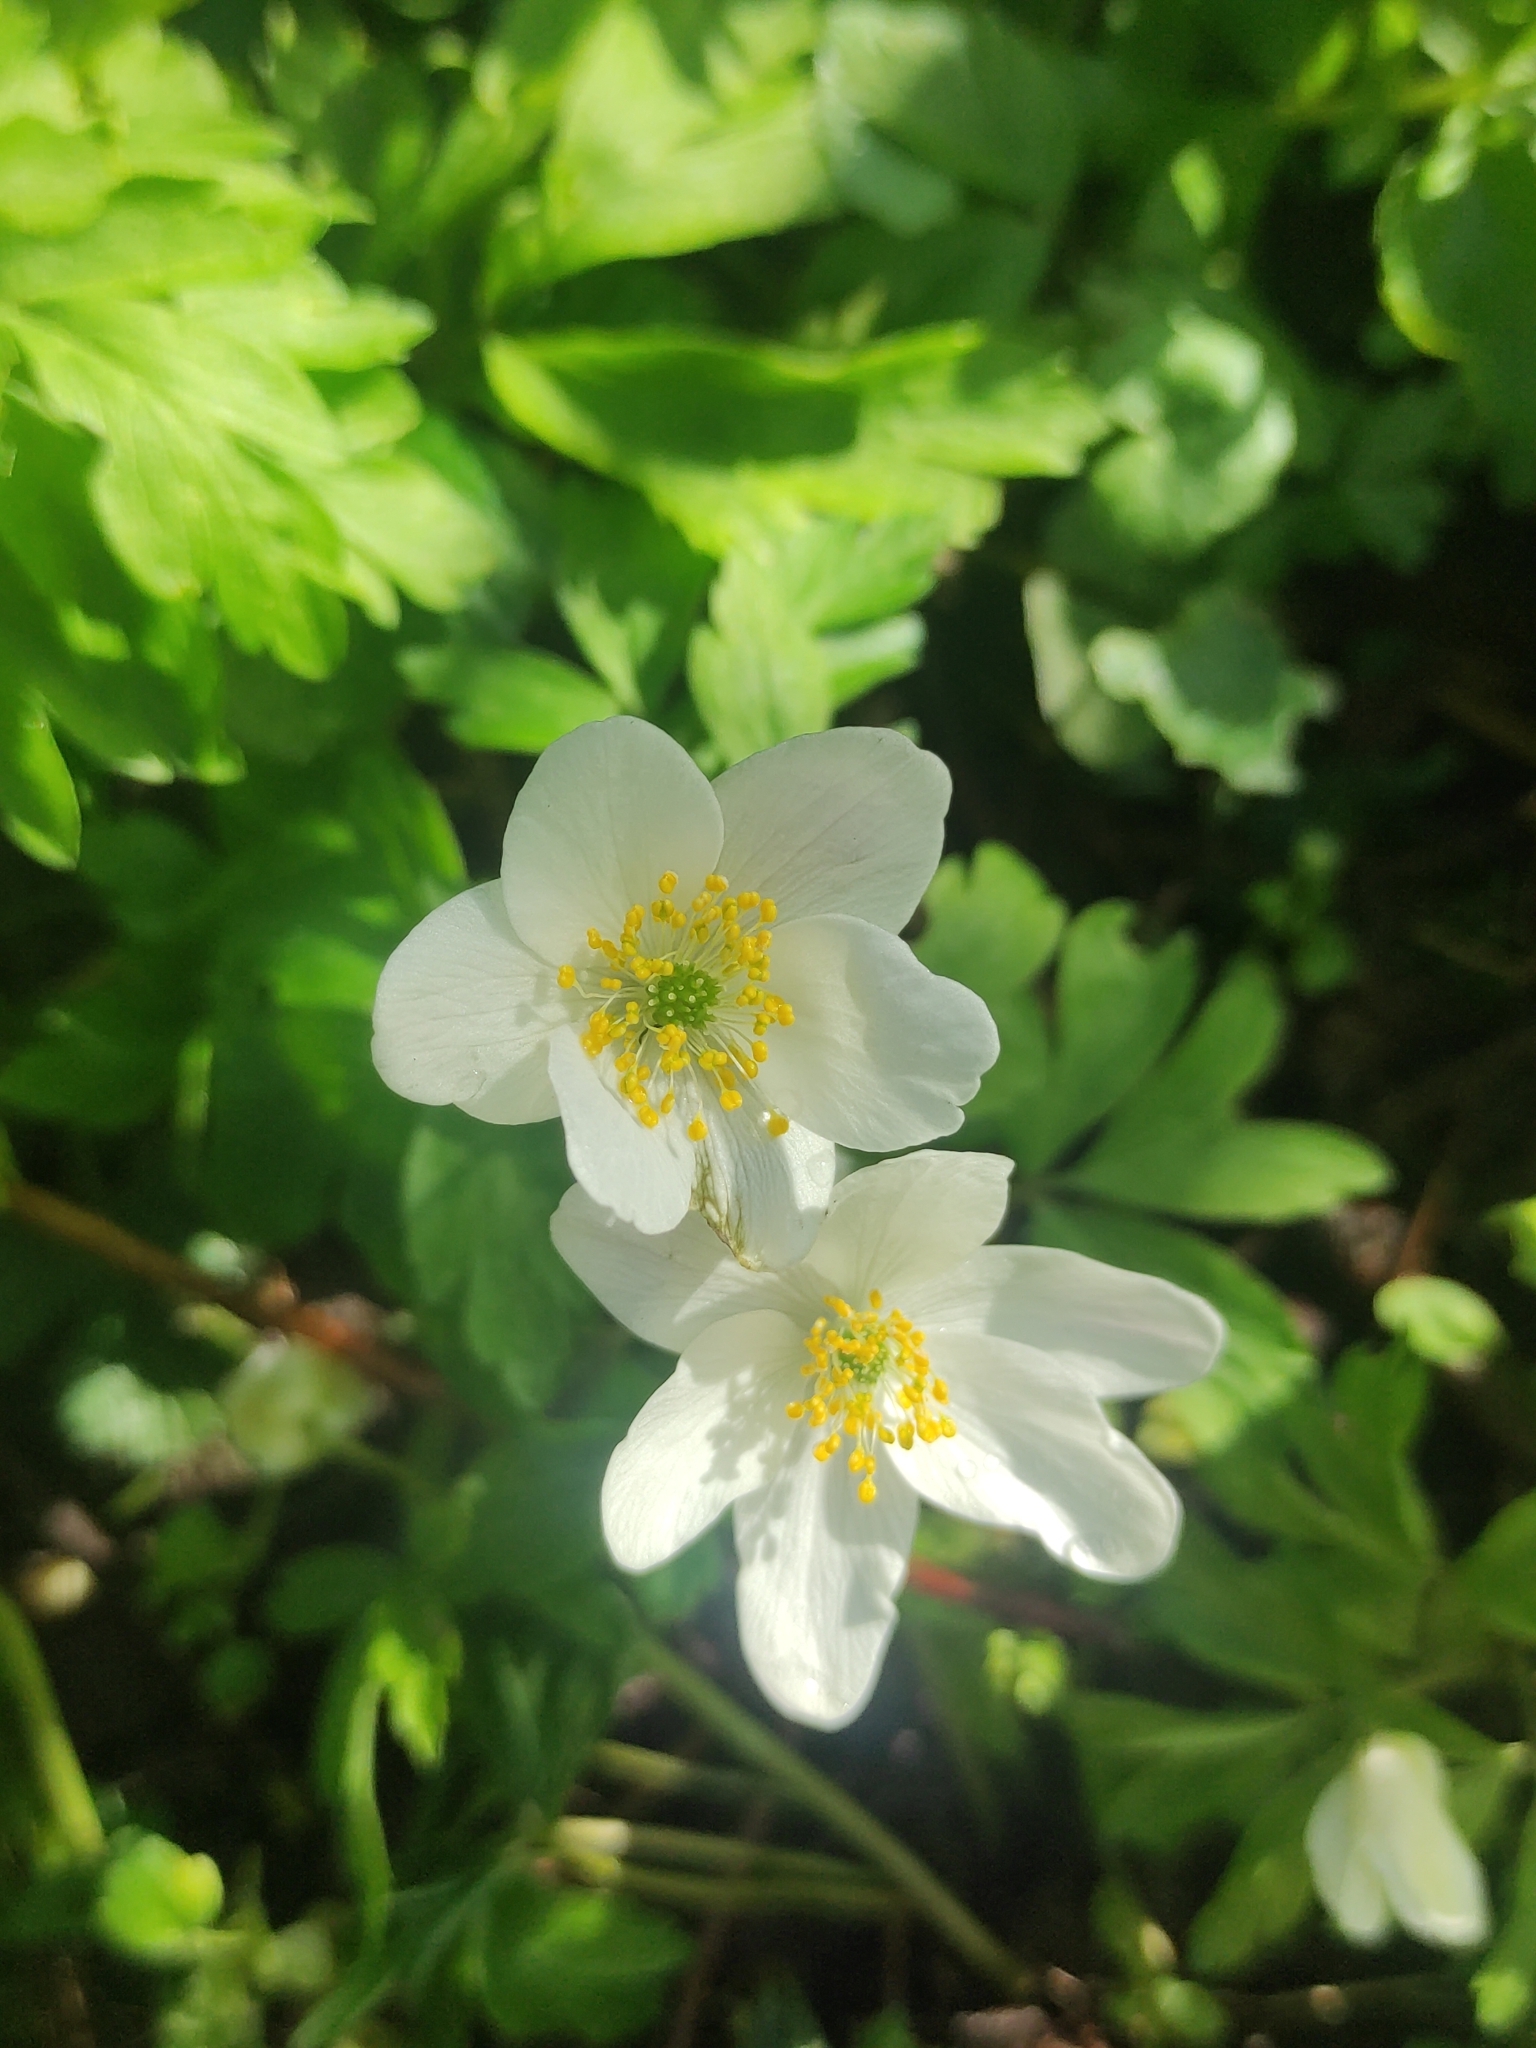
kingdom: Plantae
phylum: Tracheophyta
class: Magnoliopsida
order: Ranunculales
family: Ranunculaceae
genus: Anemone
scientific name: Anemone nemorosa
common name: Wood anemone
